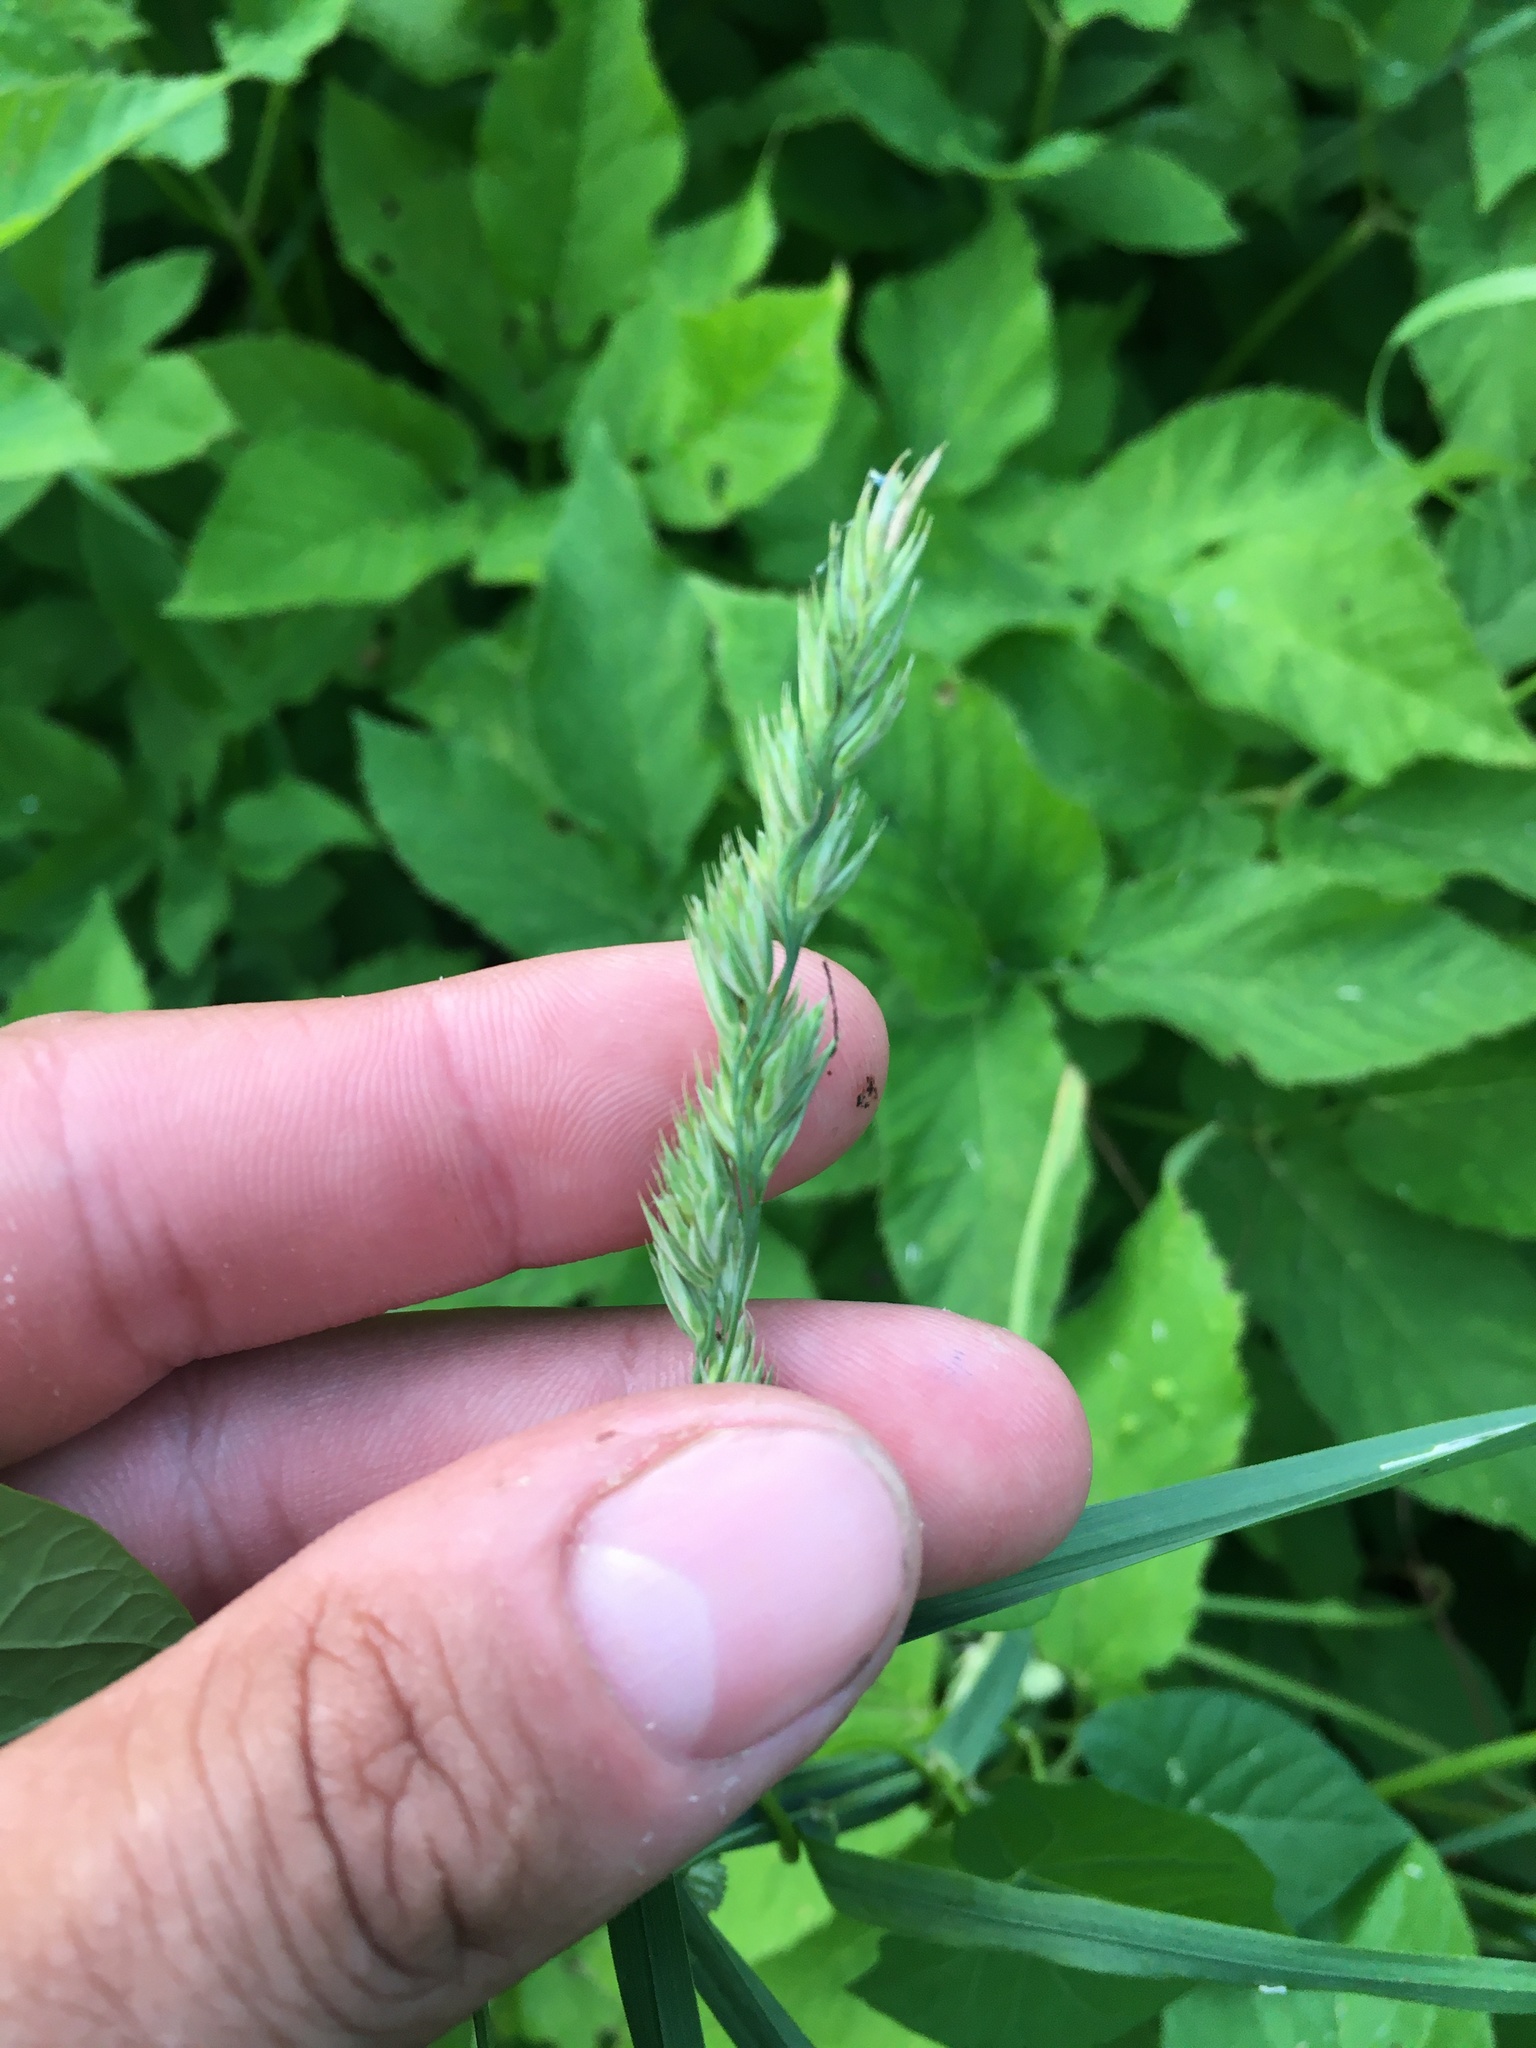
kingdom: Plantae
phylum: Tracheophyta
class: Liliopsida
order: Poales
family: Poaceae
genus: Dactylis
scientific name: Dactylis glomerata
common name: Orchardgrass
